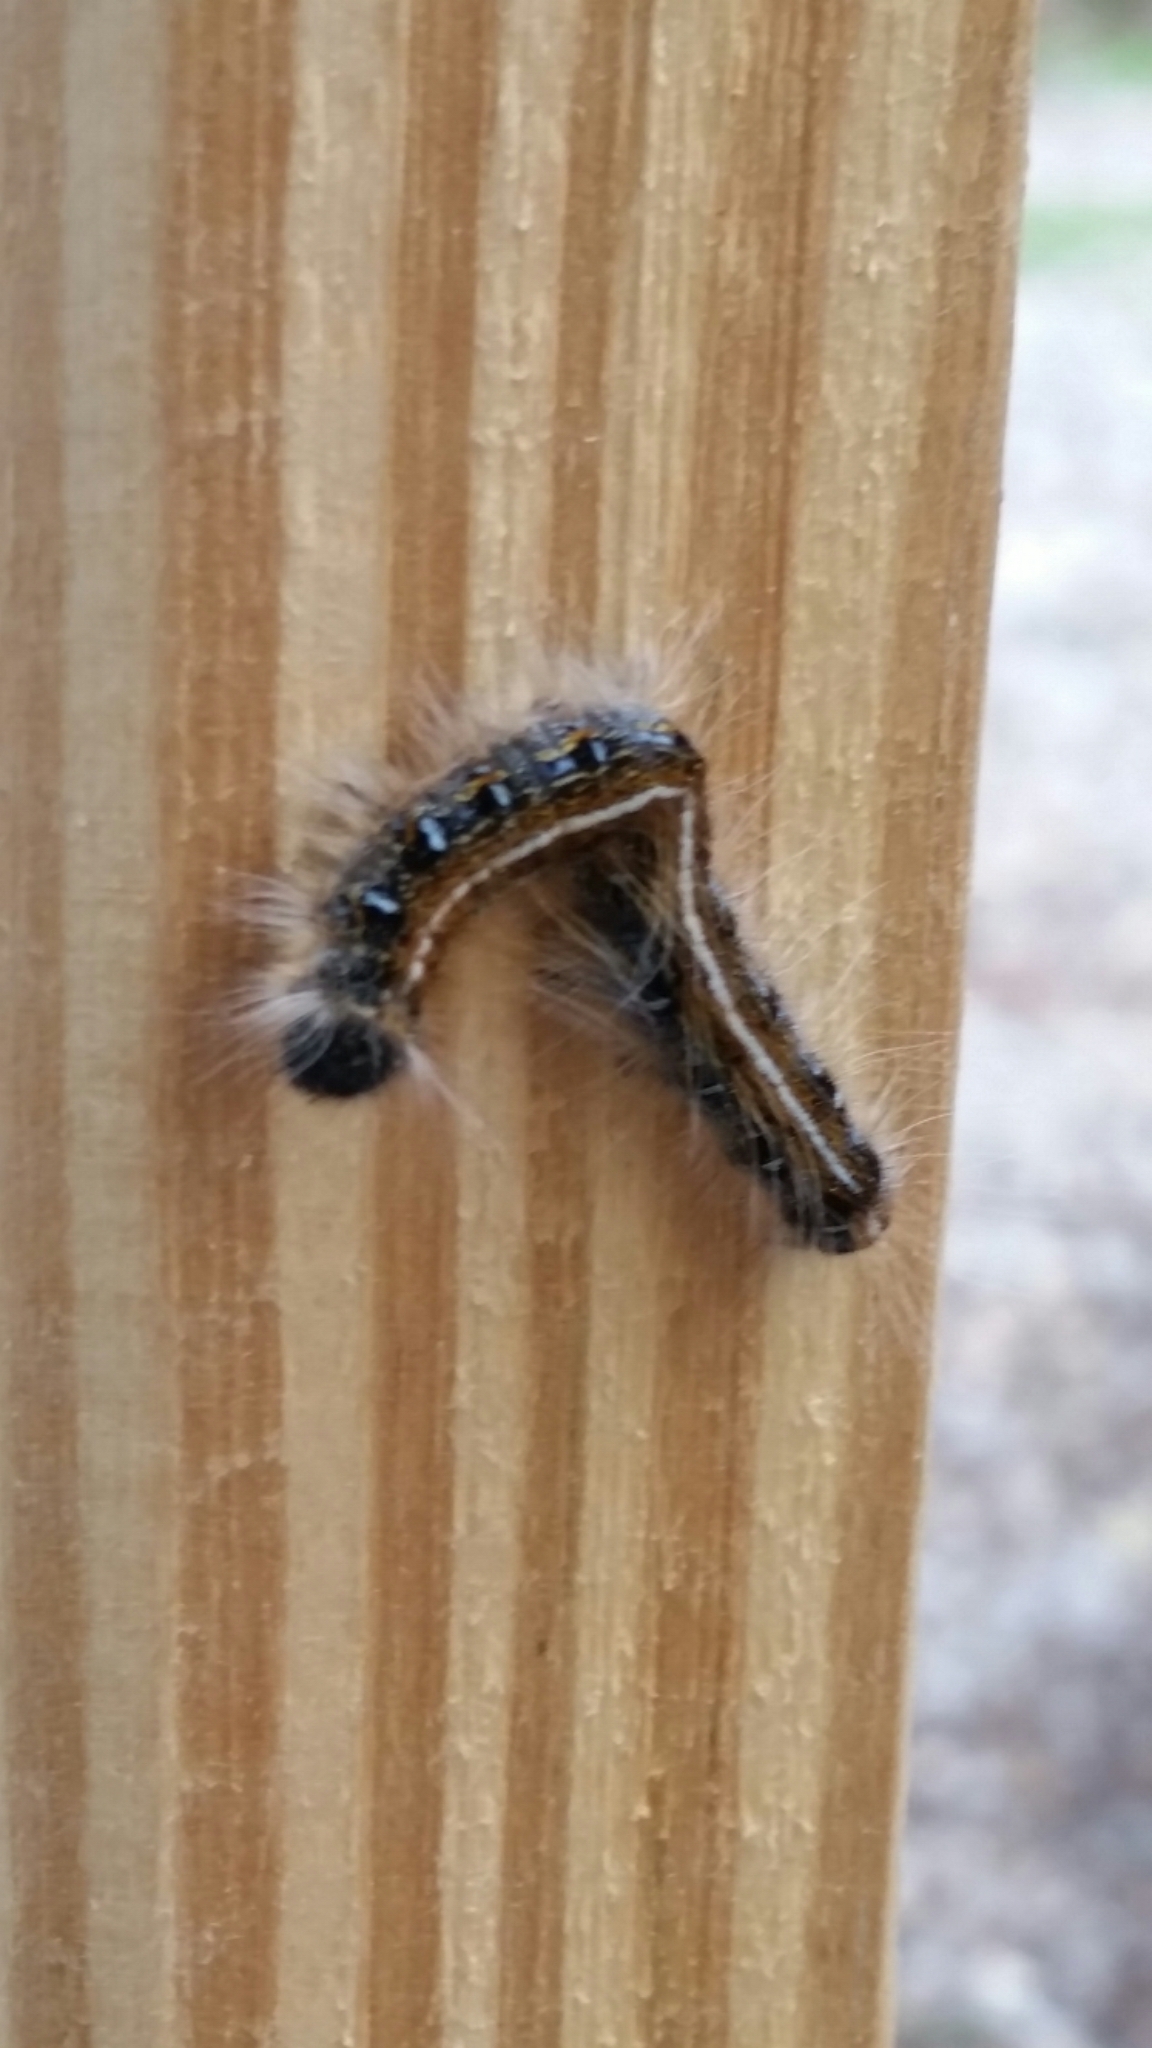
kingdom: Animalia
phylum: Arthropoda
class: Insecta
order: Lepidoptera
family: Lasiocampidae
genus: Malacosoma
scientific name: Malacosoma americana
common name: Eastern tent caterpillar moth
